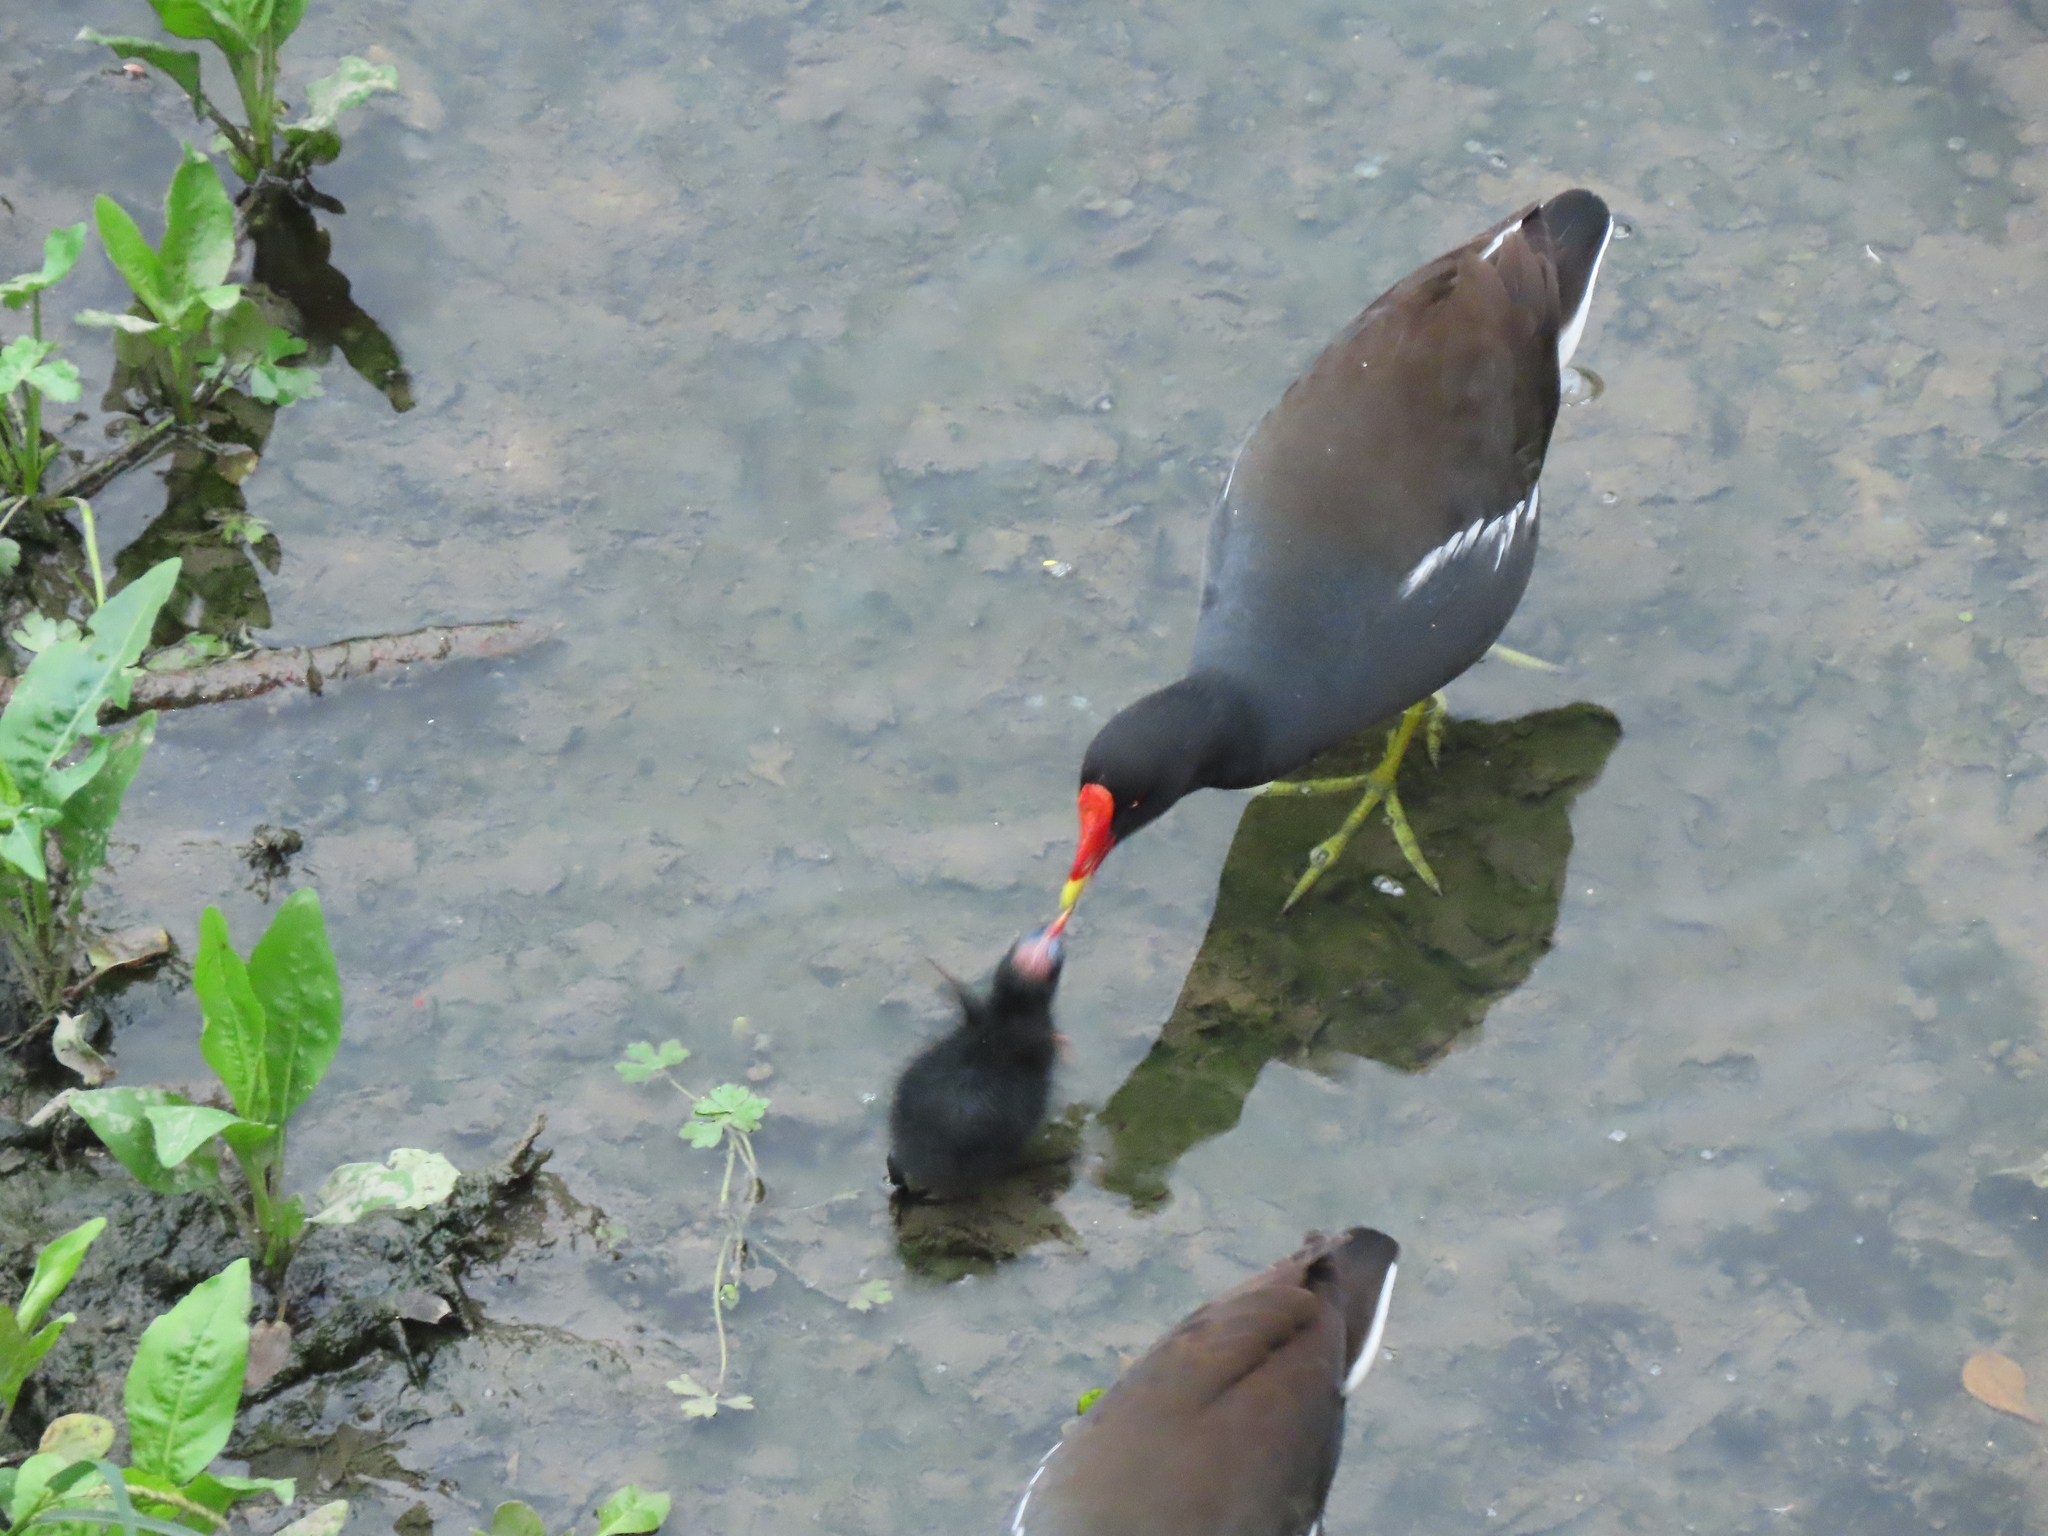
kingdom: Animalia
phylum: Chordata
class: Aves
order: Gruiformes
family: Rallidae
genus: Gallinula
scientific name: Gallinula chloropus
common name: Common moorhen
